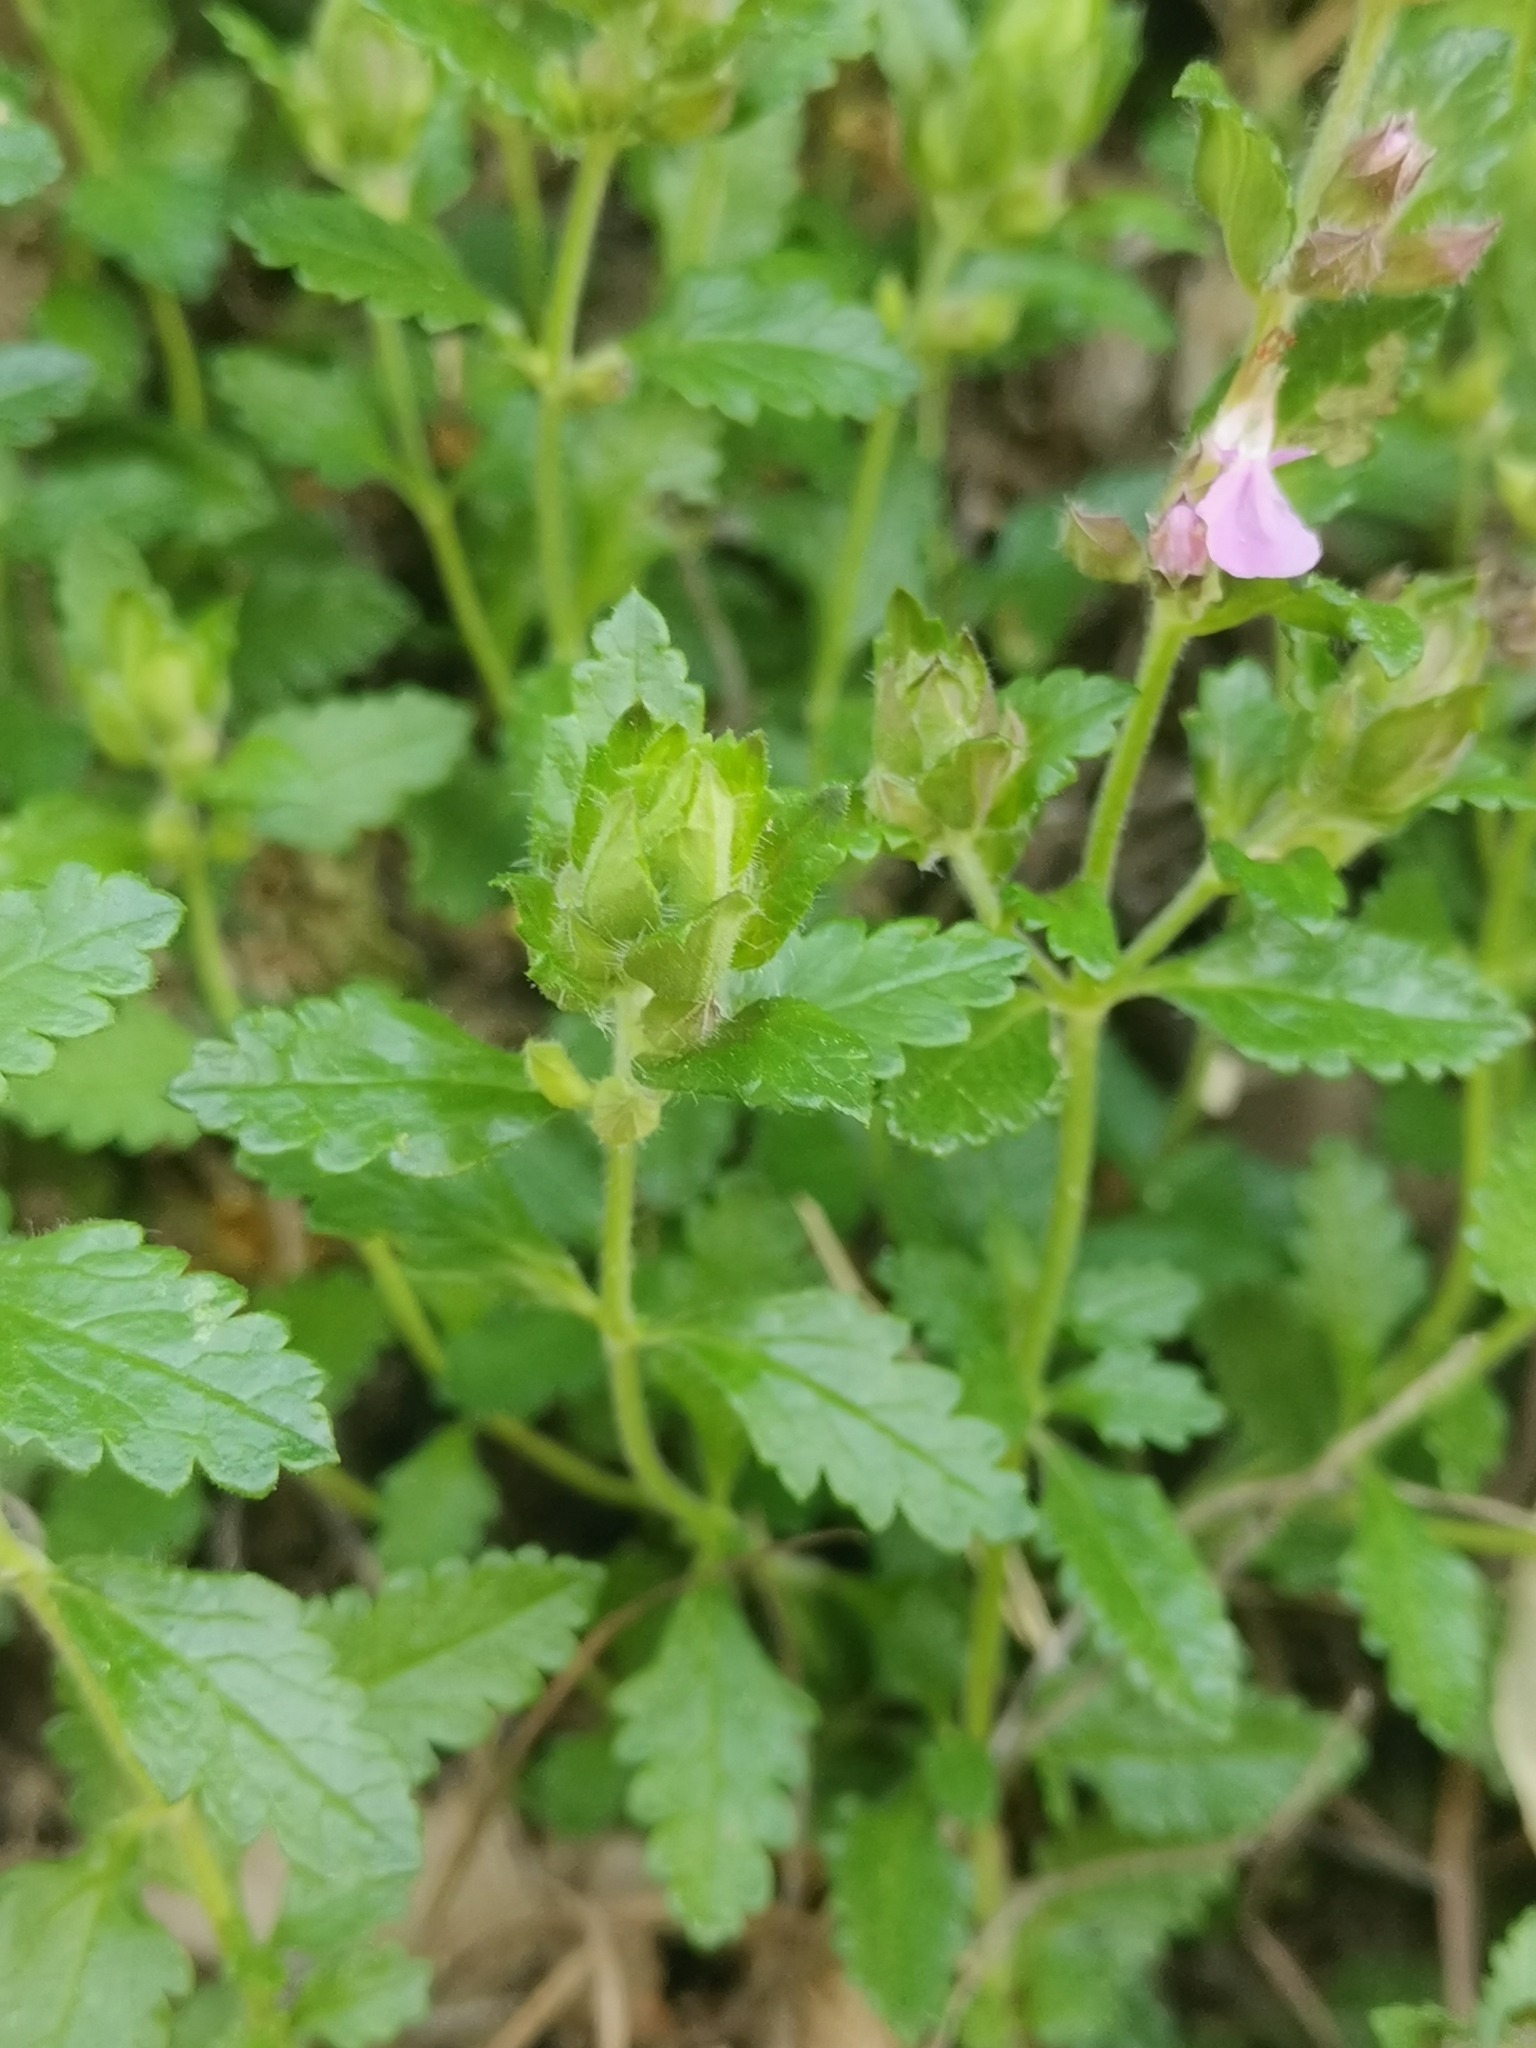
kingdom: Plantae
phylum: Tracheophyta
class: Magnoliopsida
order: Lamiales
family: Lamiaceae
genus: Teucrium
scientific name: Teucrium chamaedrys
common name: Wall germander
